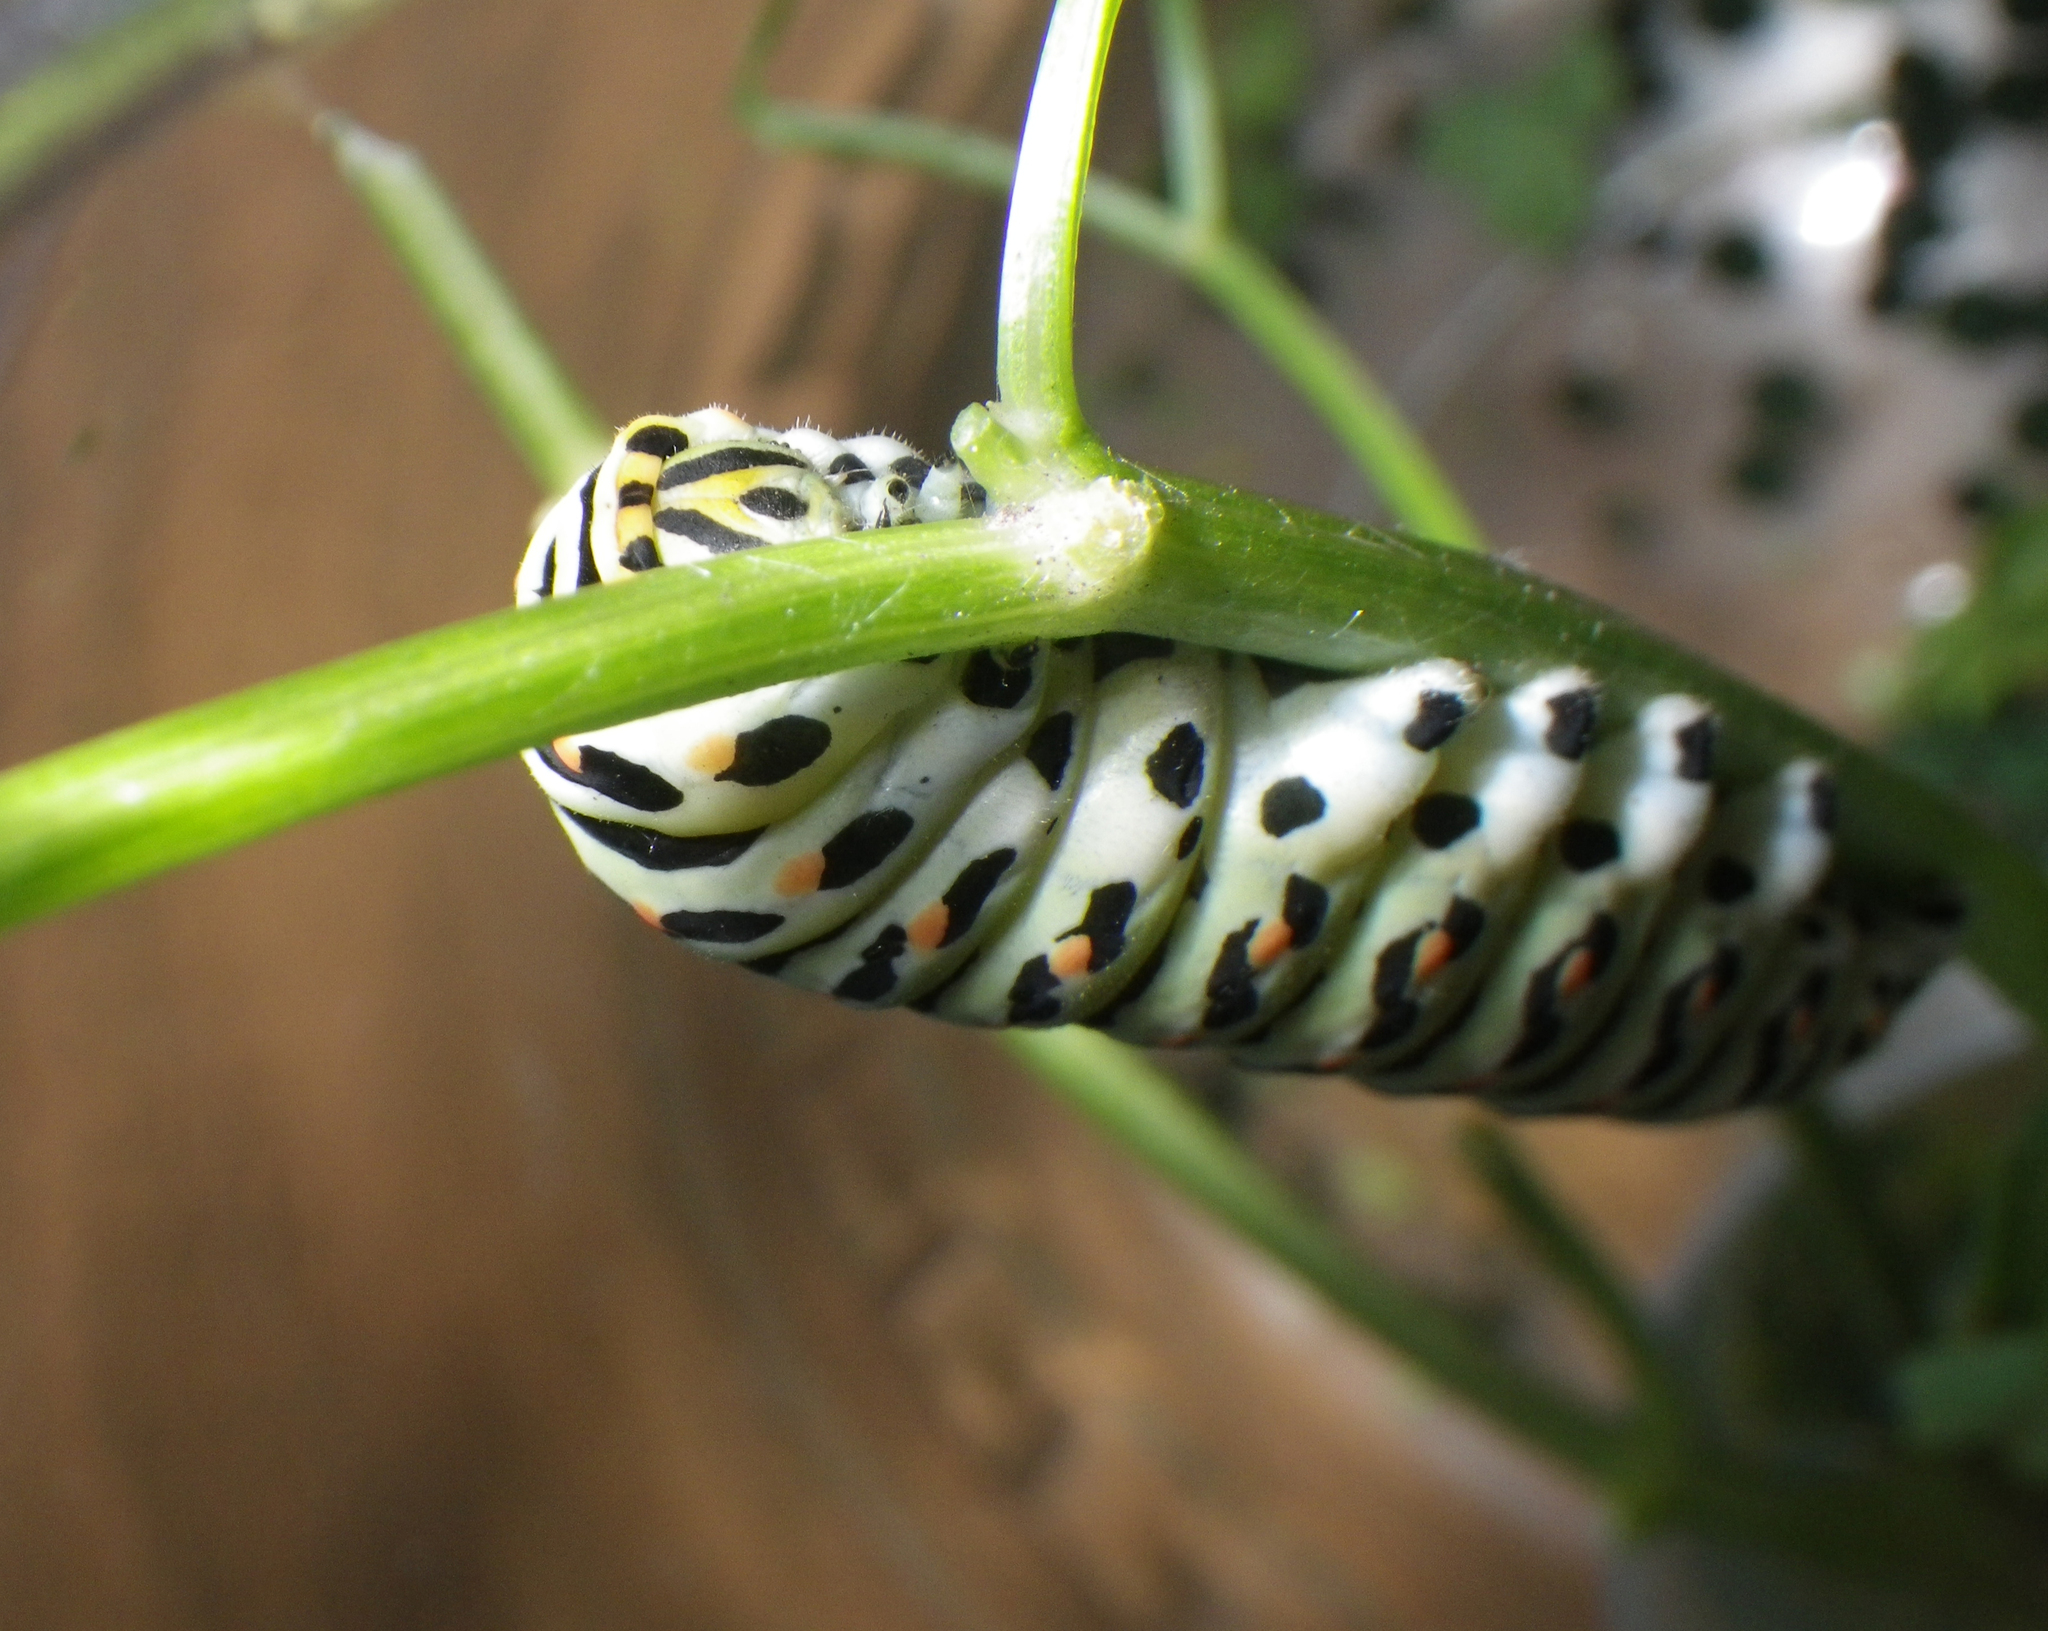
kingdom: Animalia
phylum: Arthropoda
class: Insecta
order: Lepidoptera
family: Papilionidae
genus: Papilio
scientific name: Papilio machaon
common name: Swallowtail
